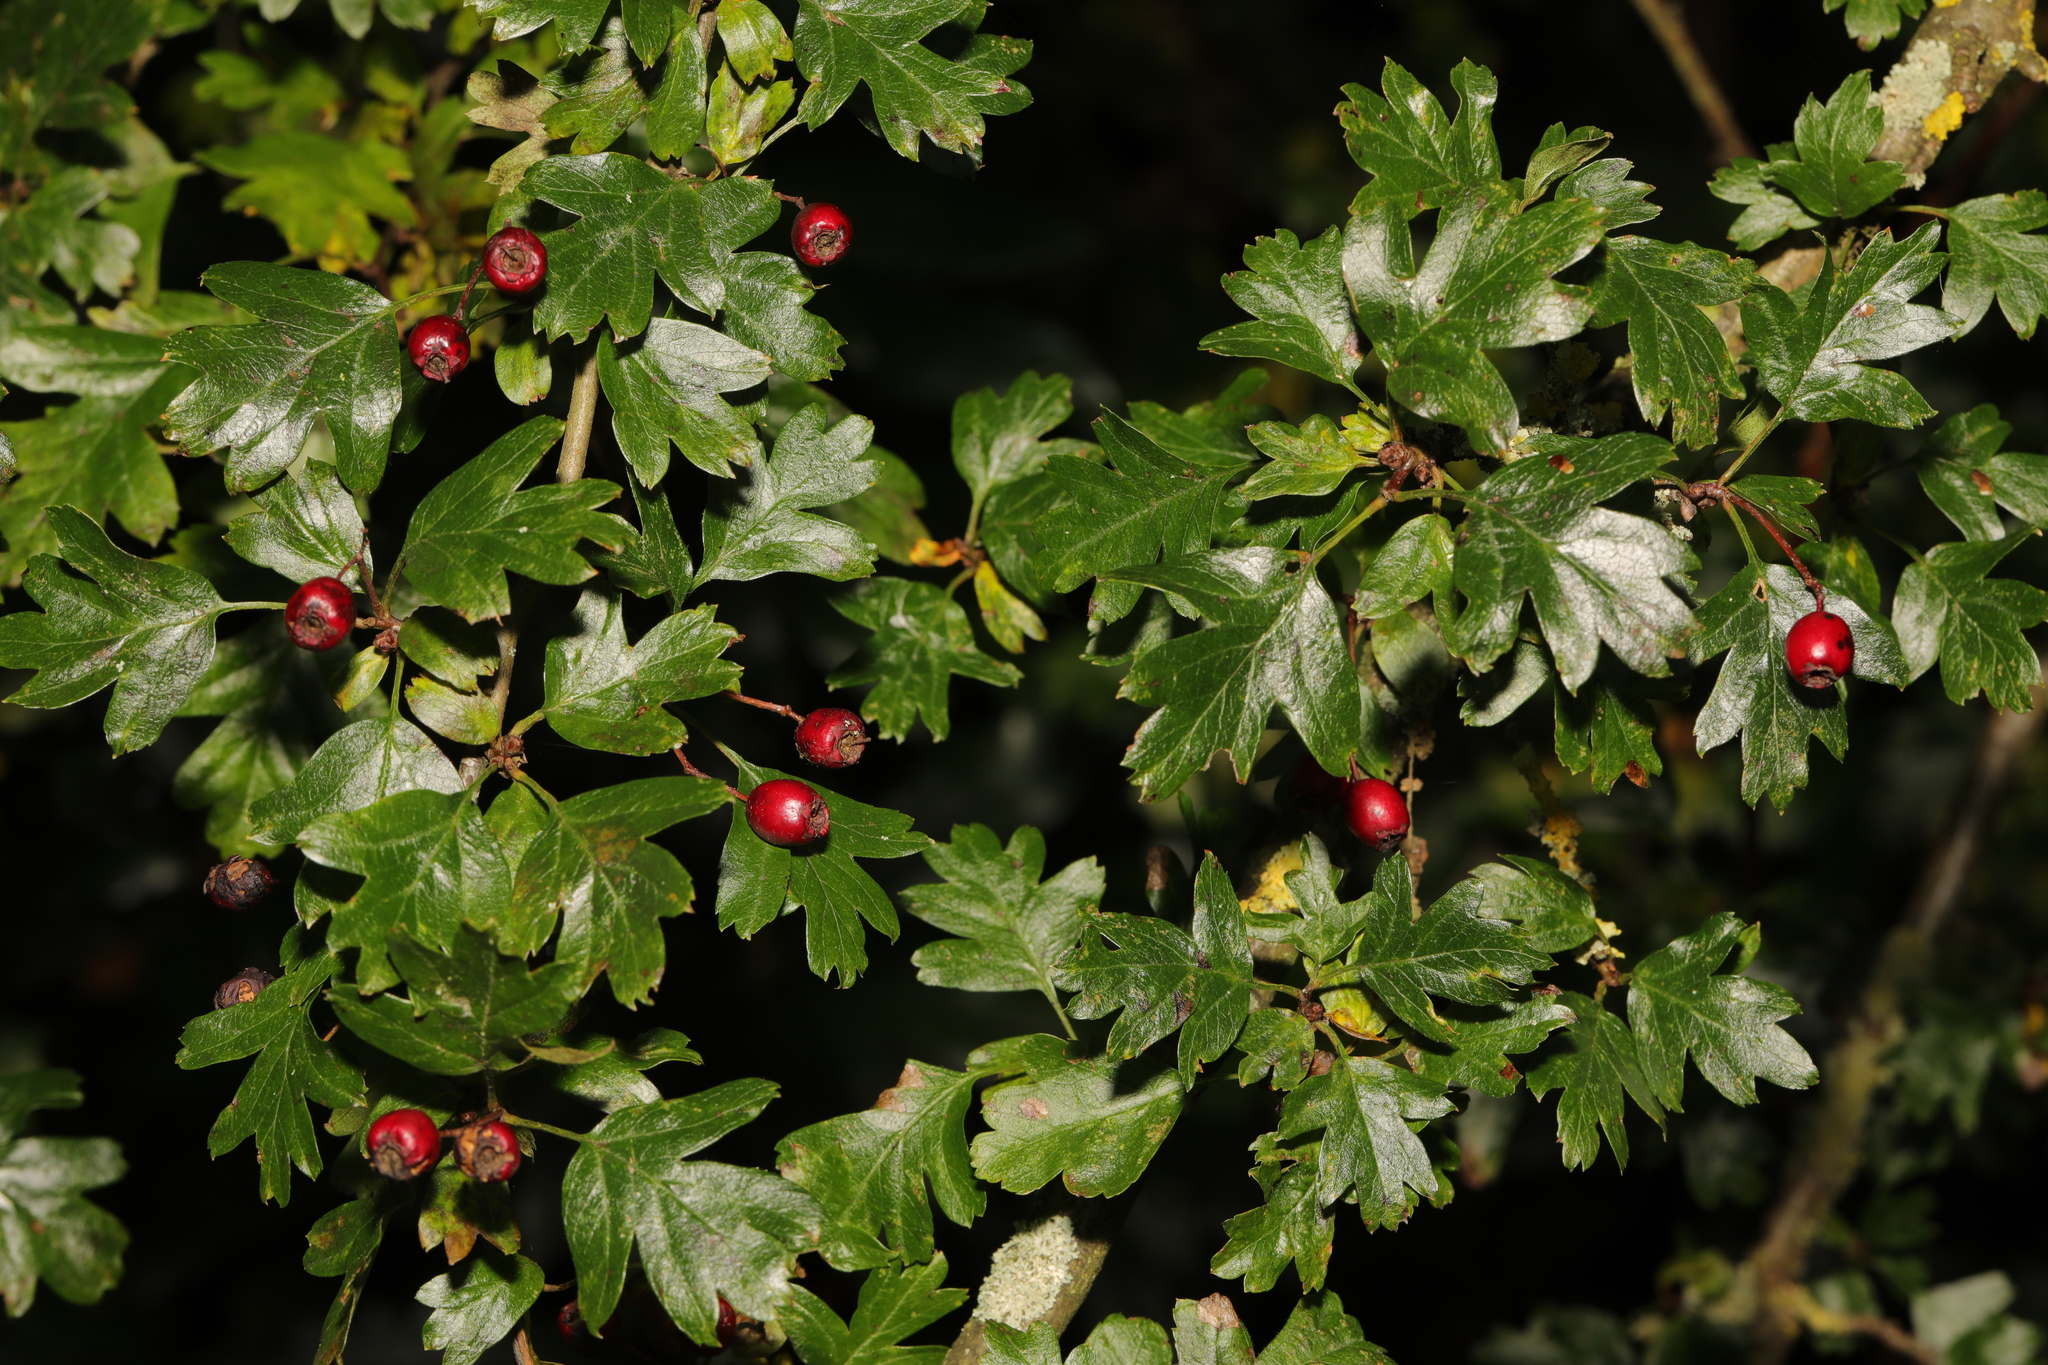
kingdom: Plantae
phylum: Tracheophyta
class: Magnoliopsida
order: Rosales
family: Rosaceae
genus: Crataegus
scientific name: Crataegus monogyna
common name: Hawthorn
